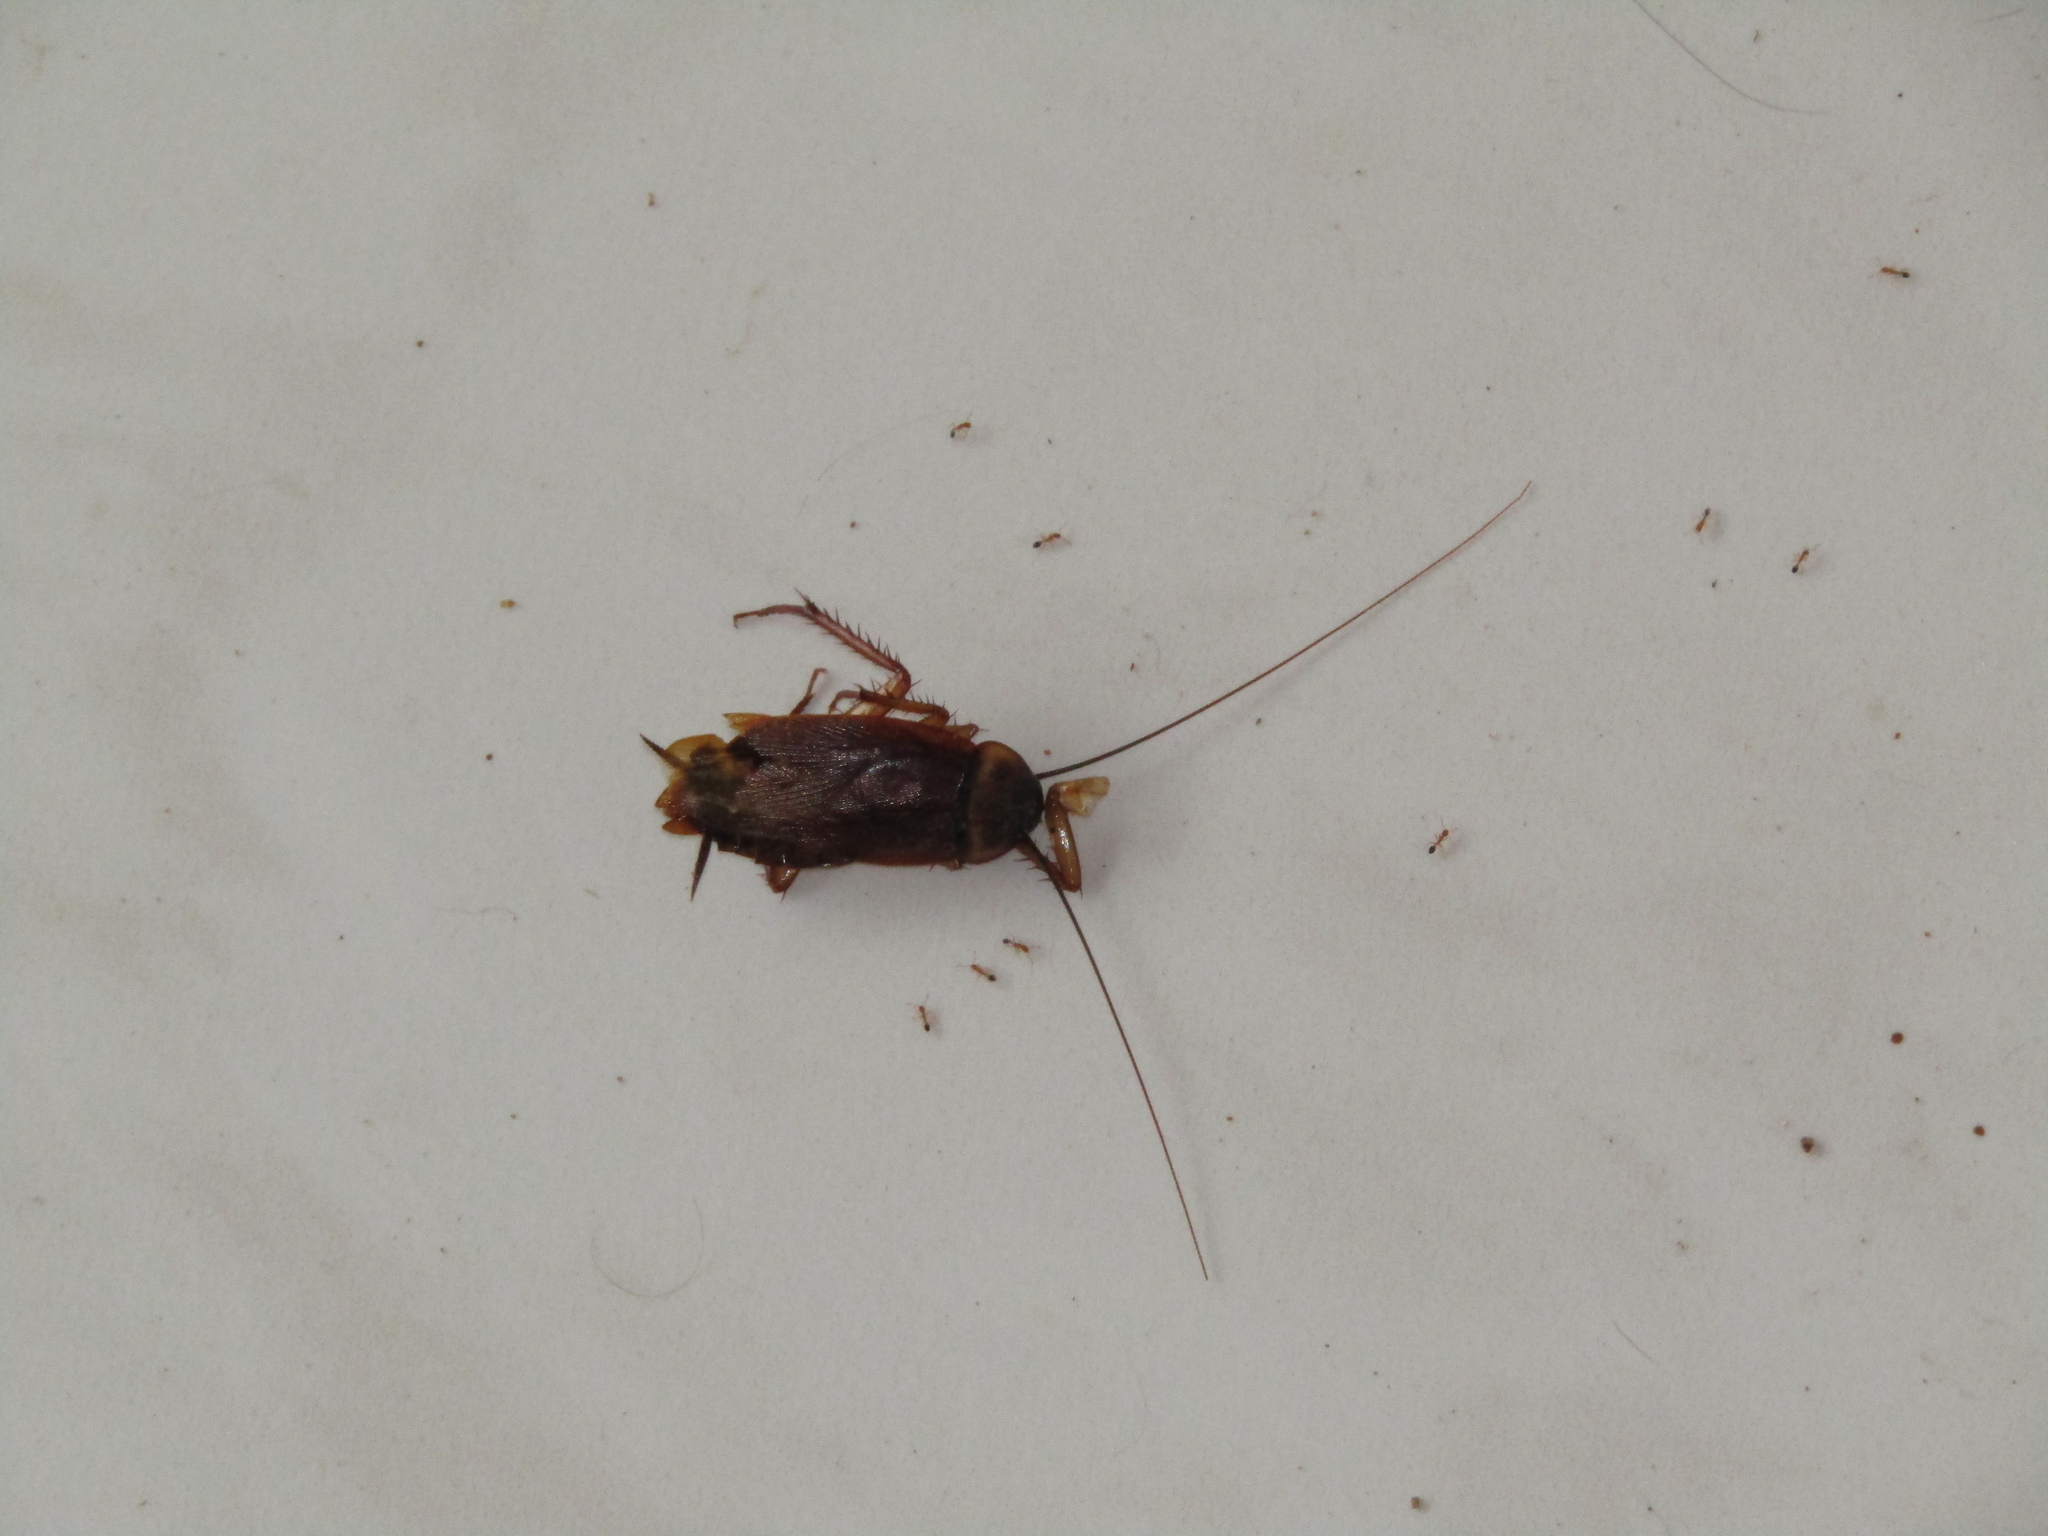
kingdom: Animalia
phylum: Arthropoda
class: Insecta
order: Blattodea
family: Blattidae
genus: Periplaneta
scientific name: Periplaneta americana
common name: American cockroach
